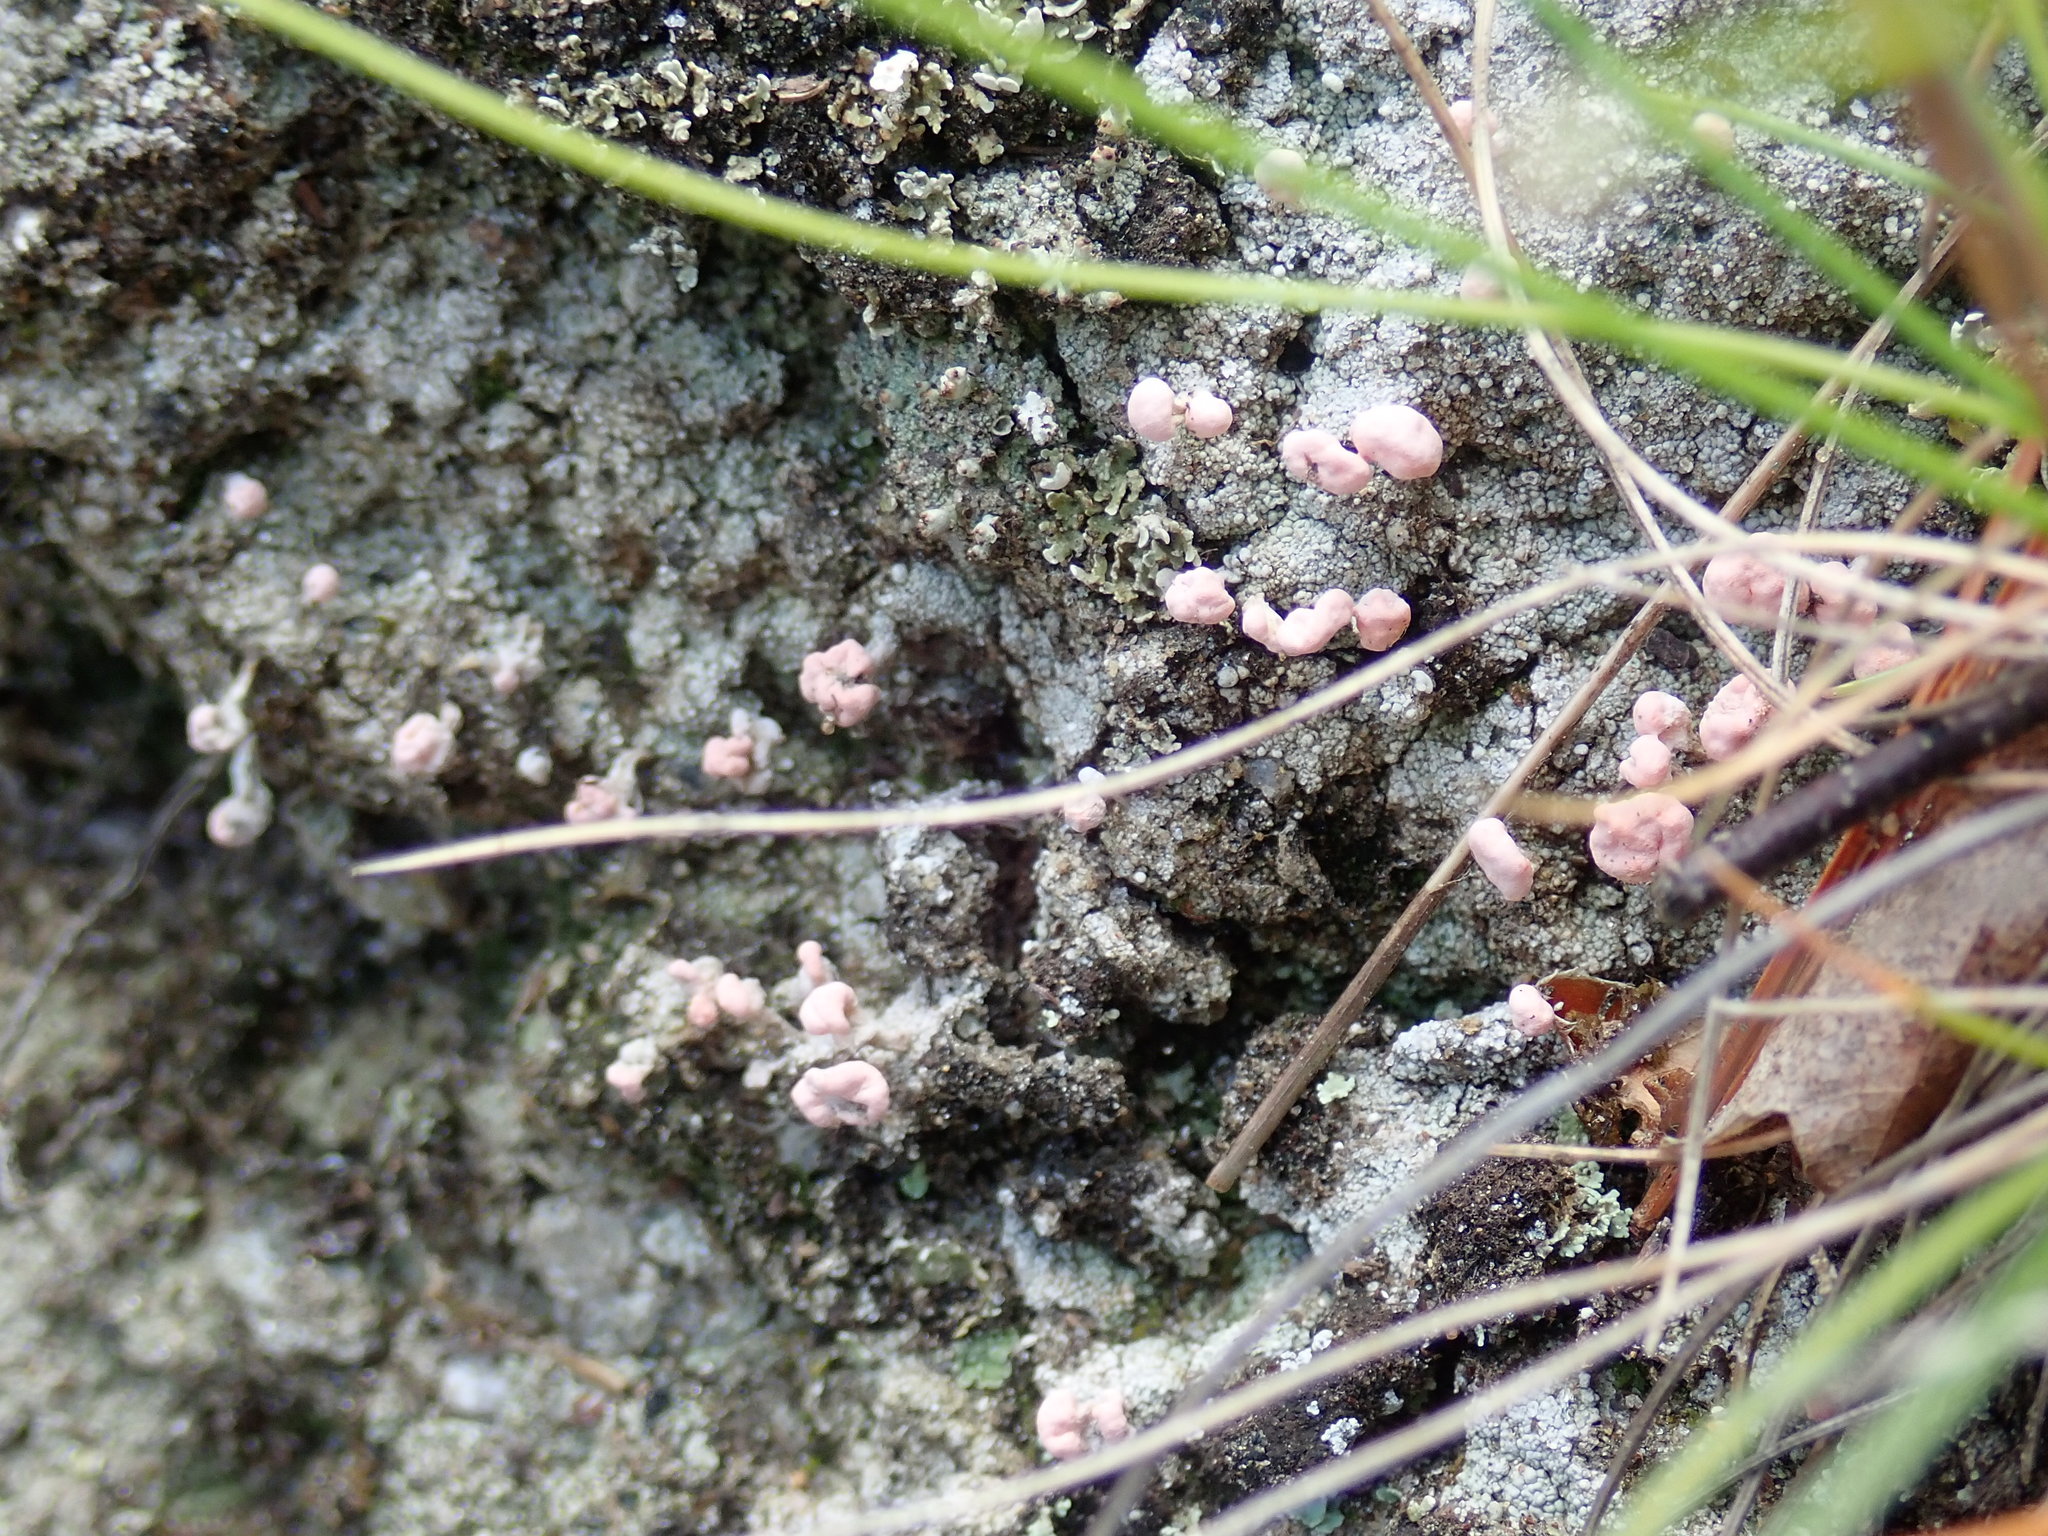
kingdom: Fungi
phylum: Ascomycota
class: Lecanoromycetes
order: Pertusariales
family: Icmadophilaceae
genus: Dibaeis
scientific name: Dibaeis baeomyces
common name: Pink earth lichen
